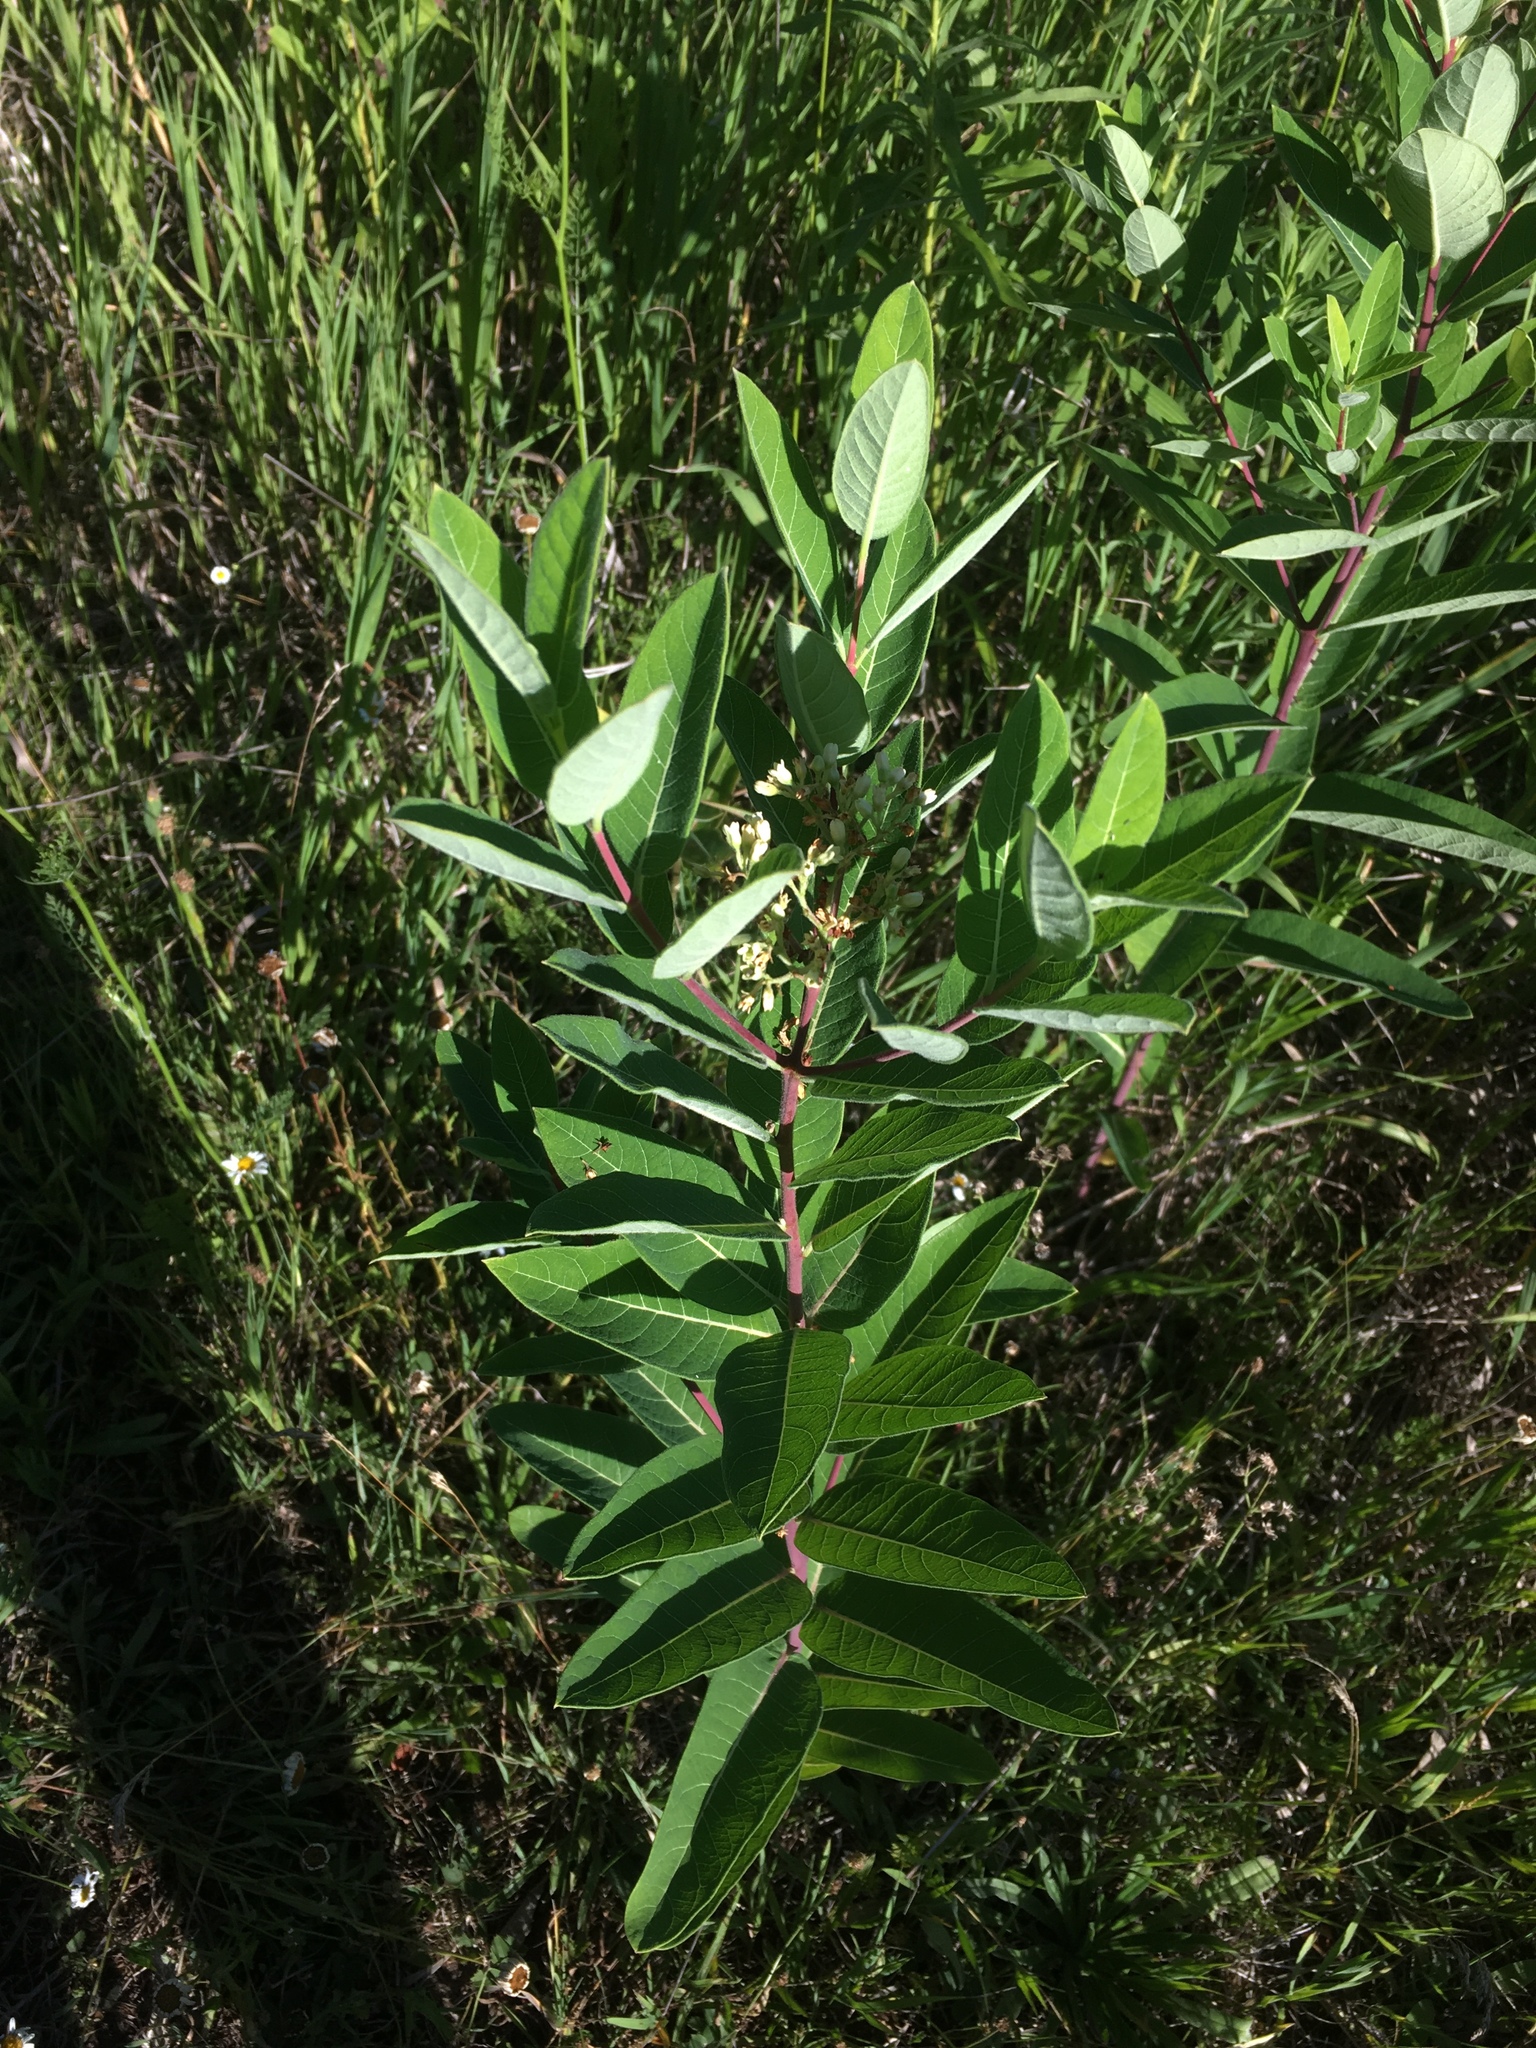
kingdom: Plantae
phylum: Tracheophyta
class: Magnoliopsida
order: Gentianales
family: Apocynaceae
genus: Apocynum
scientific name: Apocynum cannabinum
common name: Hemp dogbane
